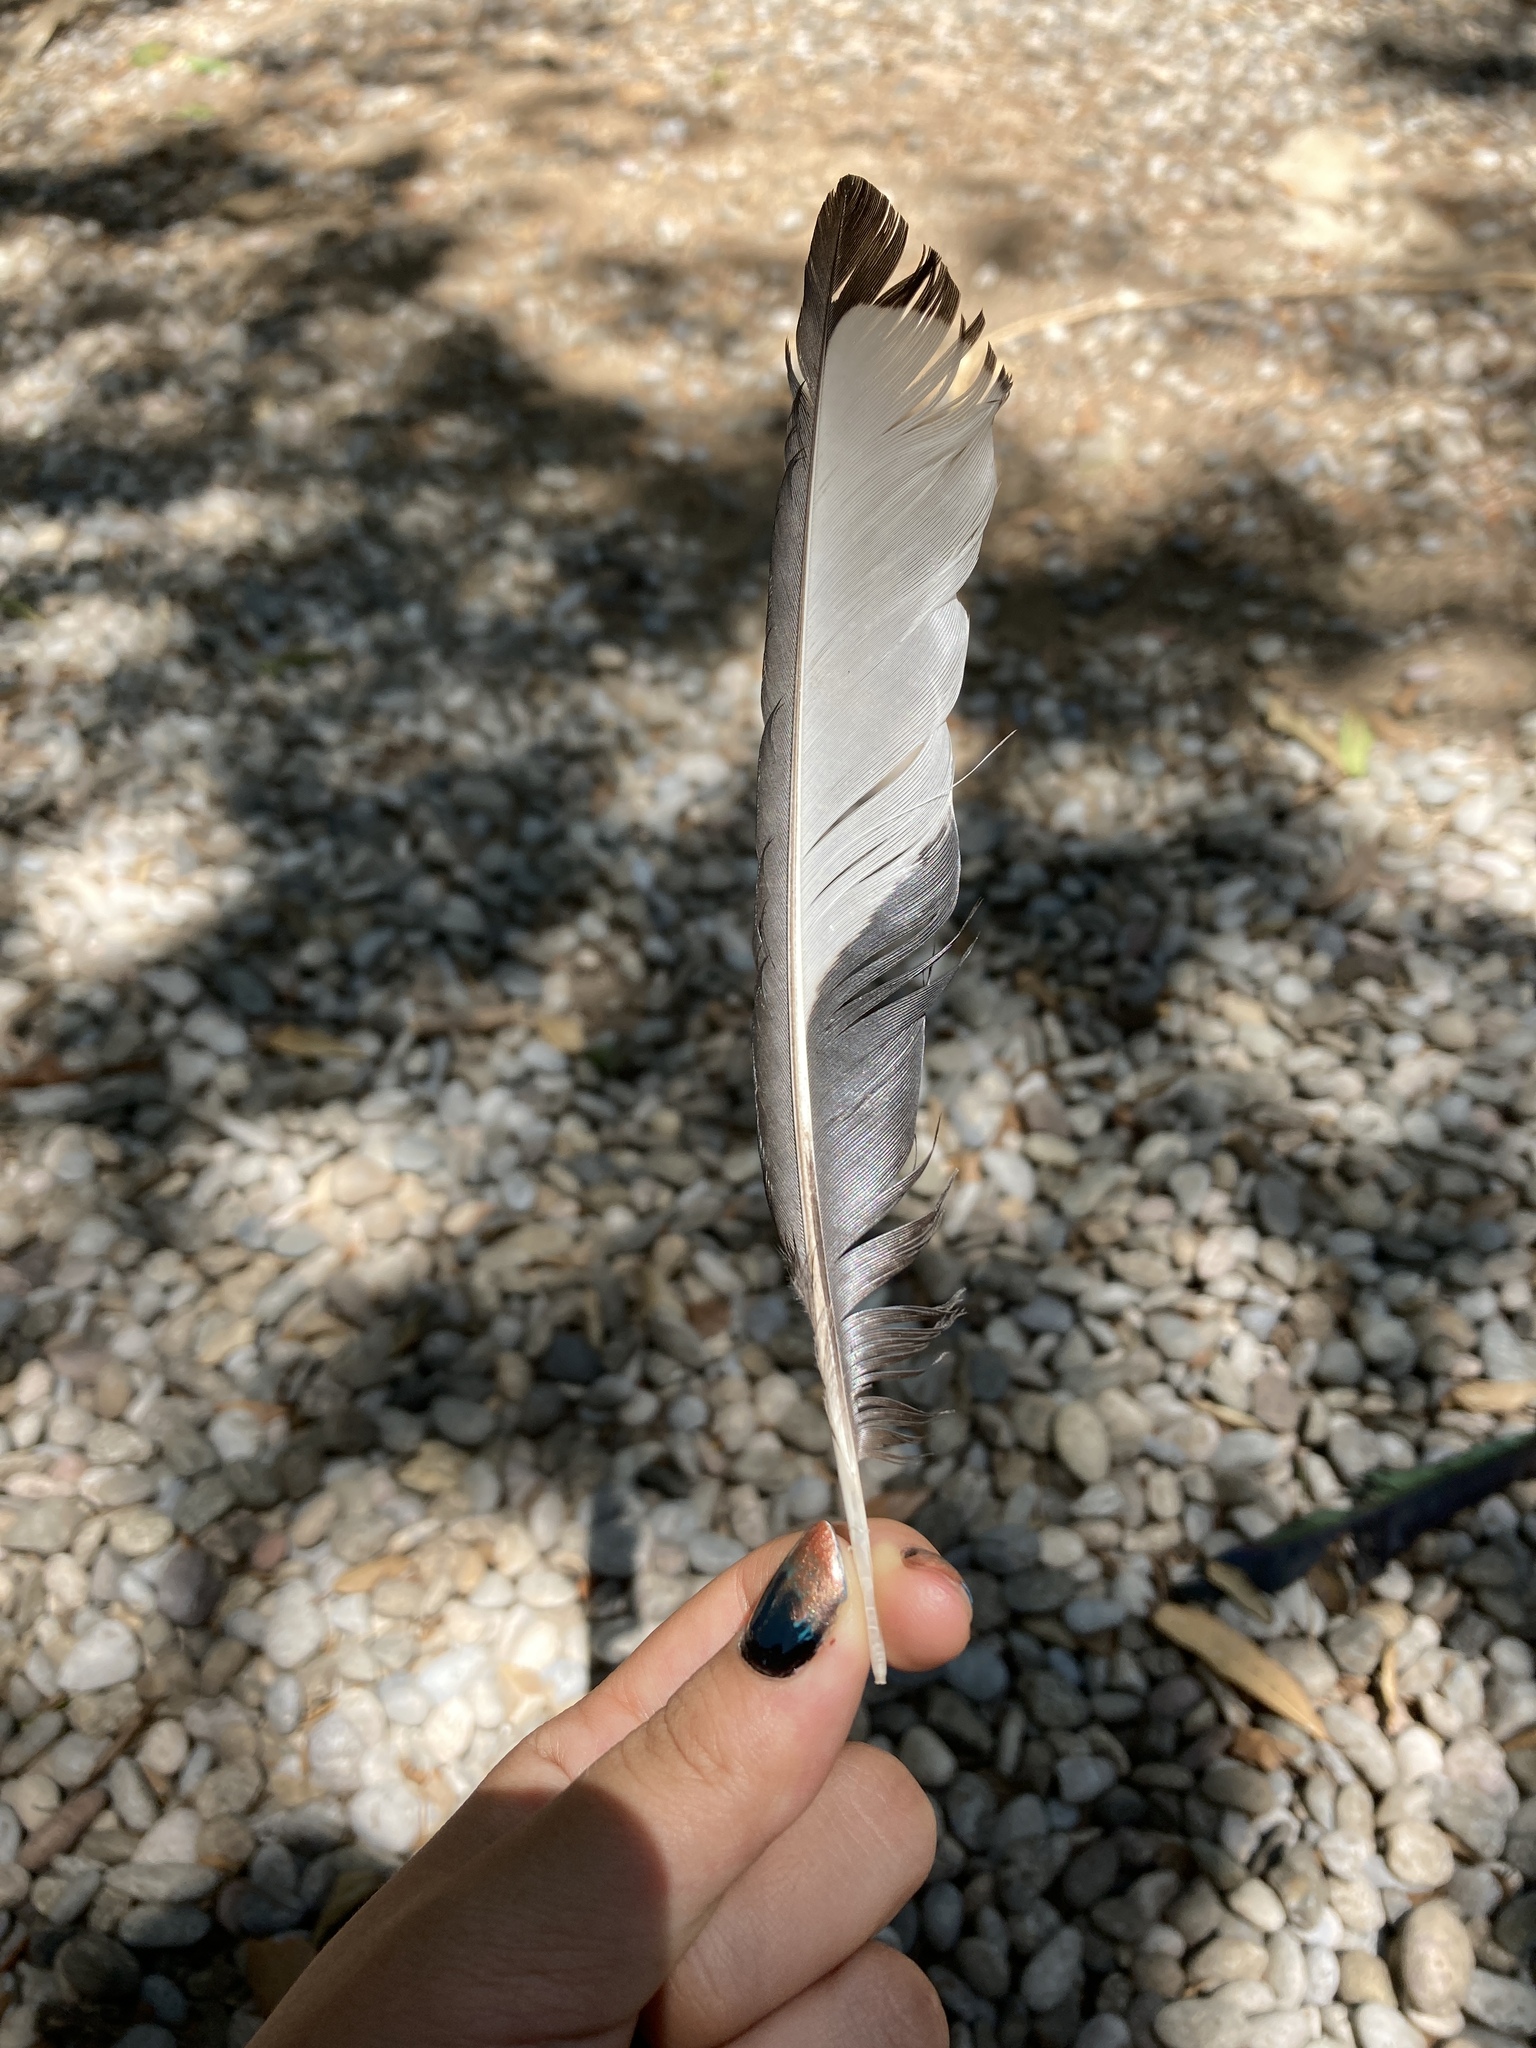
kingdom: Animalia
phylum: Chordata
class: Aves
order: Passeriformes
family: Corvidae
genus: Pica
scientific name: Pica pica
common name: Eurasian magpie
